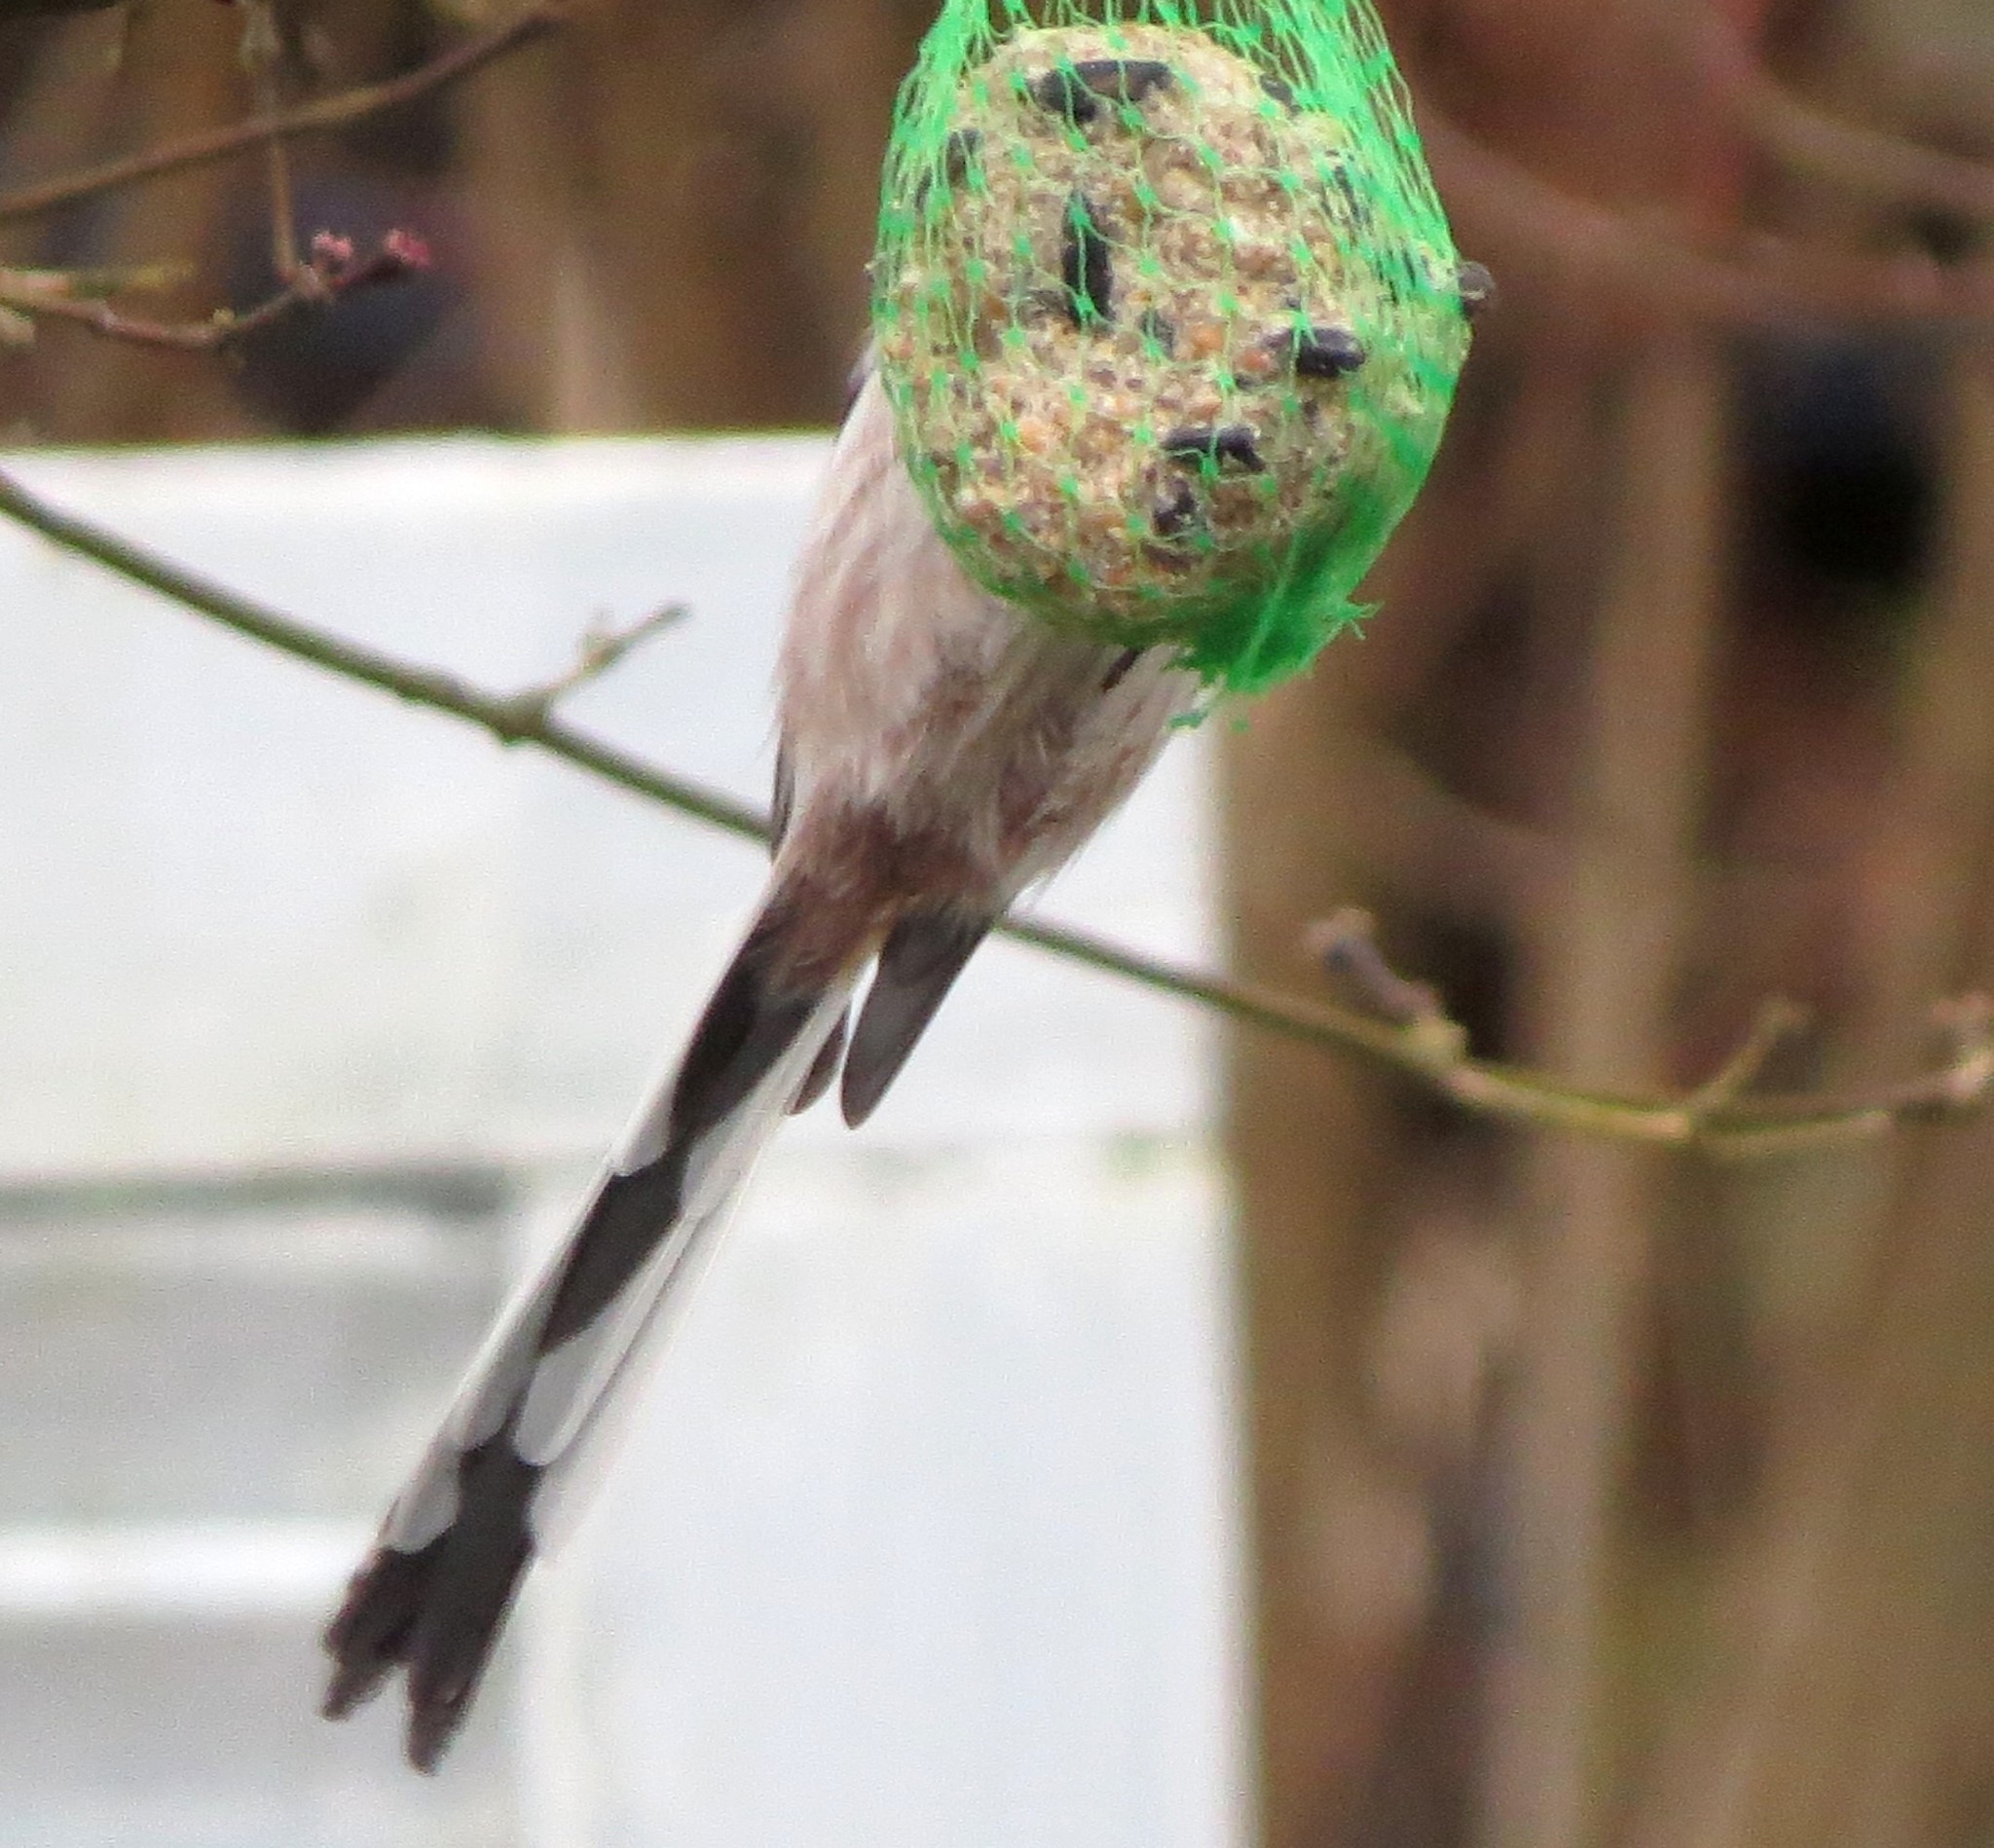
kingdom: Animalia
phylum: Chordata
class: Aves
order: Passeriformes
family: Aegithalidae
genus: Aegithalos
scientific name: Aegithalos caudatus
